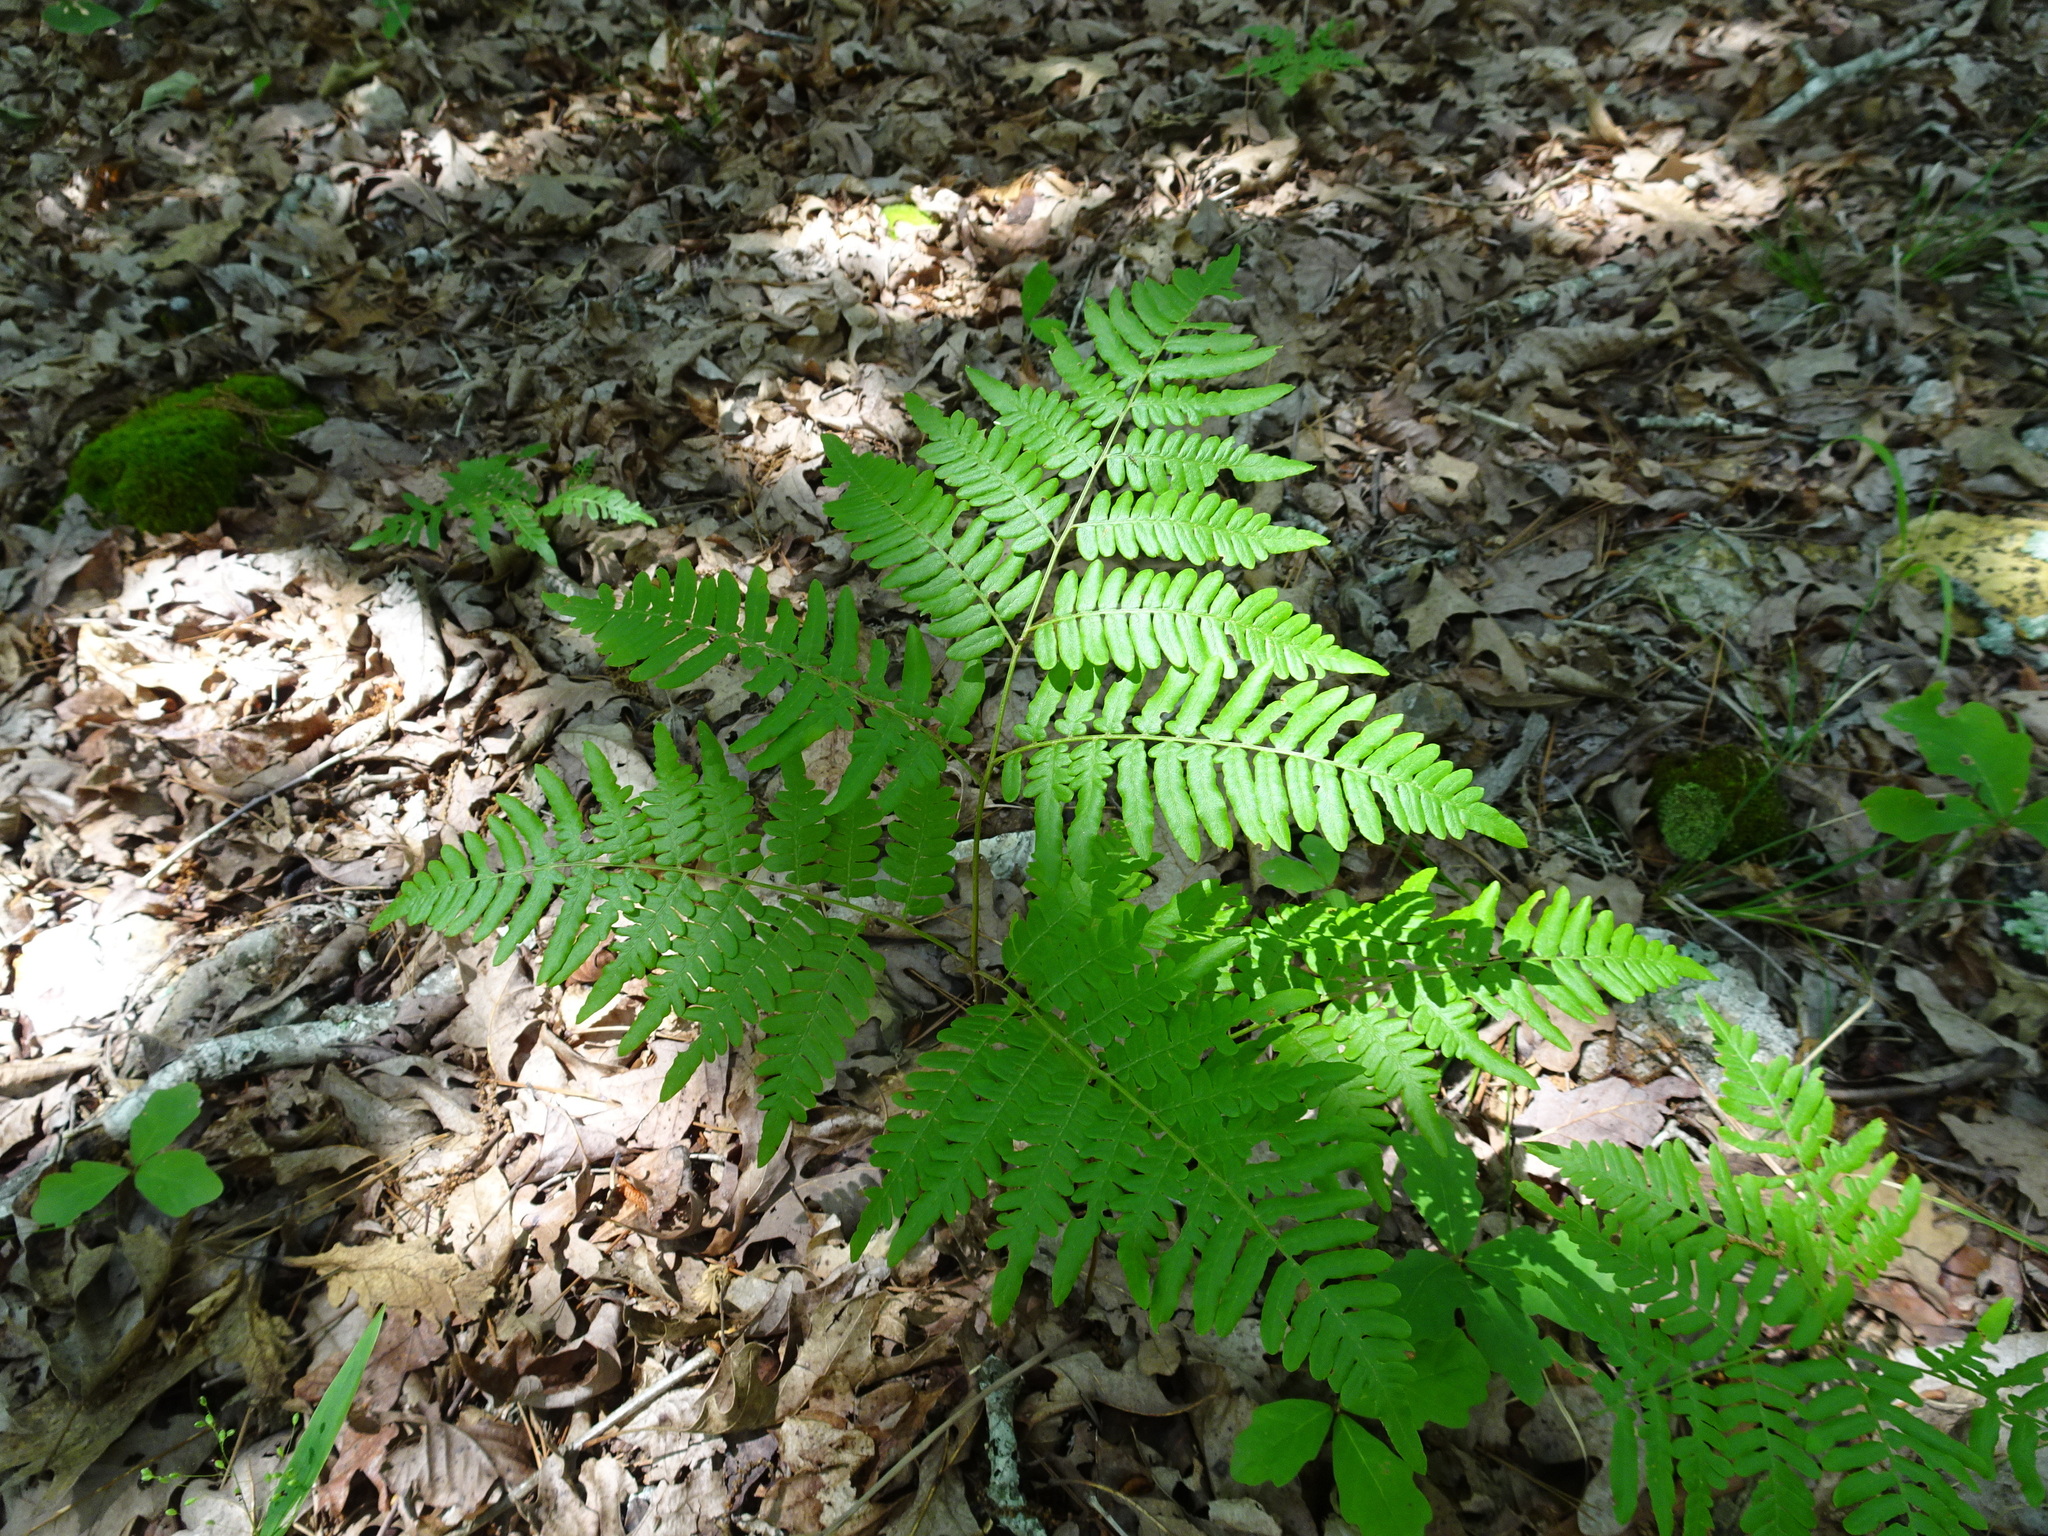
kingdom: Plantae
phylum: Tracheophyta
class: Polypodiopsida
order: Polypodiales
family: Dennstaedtiaceae
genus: Pteridium
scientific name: Pteridium aquilinum
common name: Bracken
